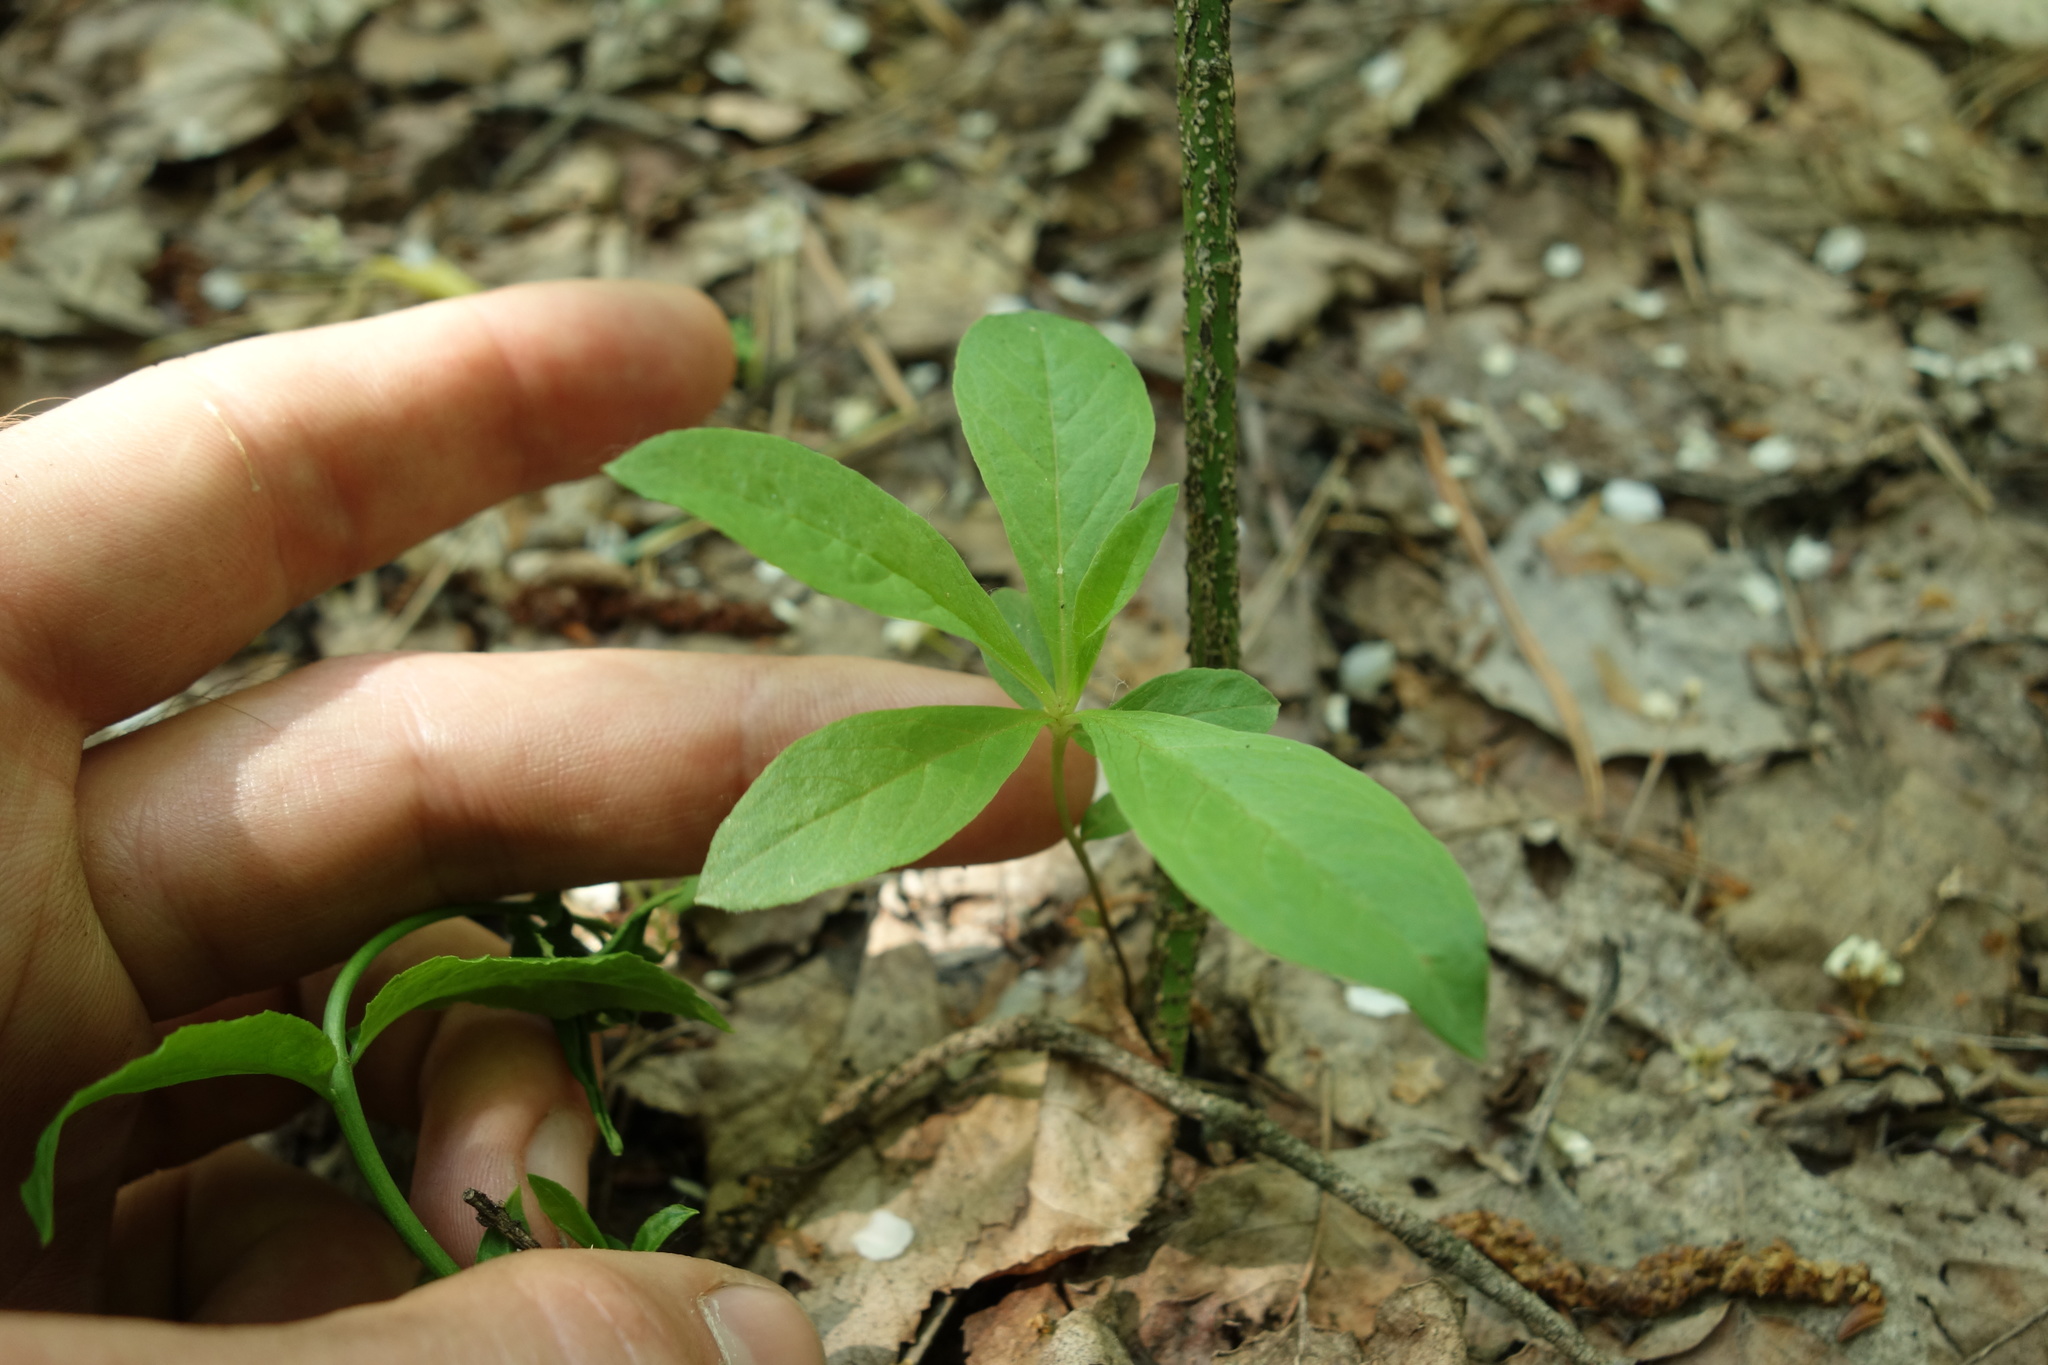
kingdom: Plantae
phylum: Tracheophyta
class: Magnoliopsida
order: Ericales
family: Primulaceae
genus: Lysimachia
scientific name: Lysimachia europaea
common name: Arctic starflower
